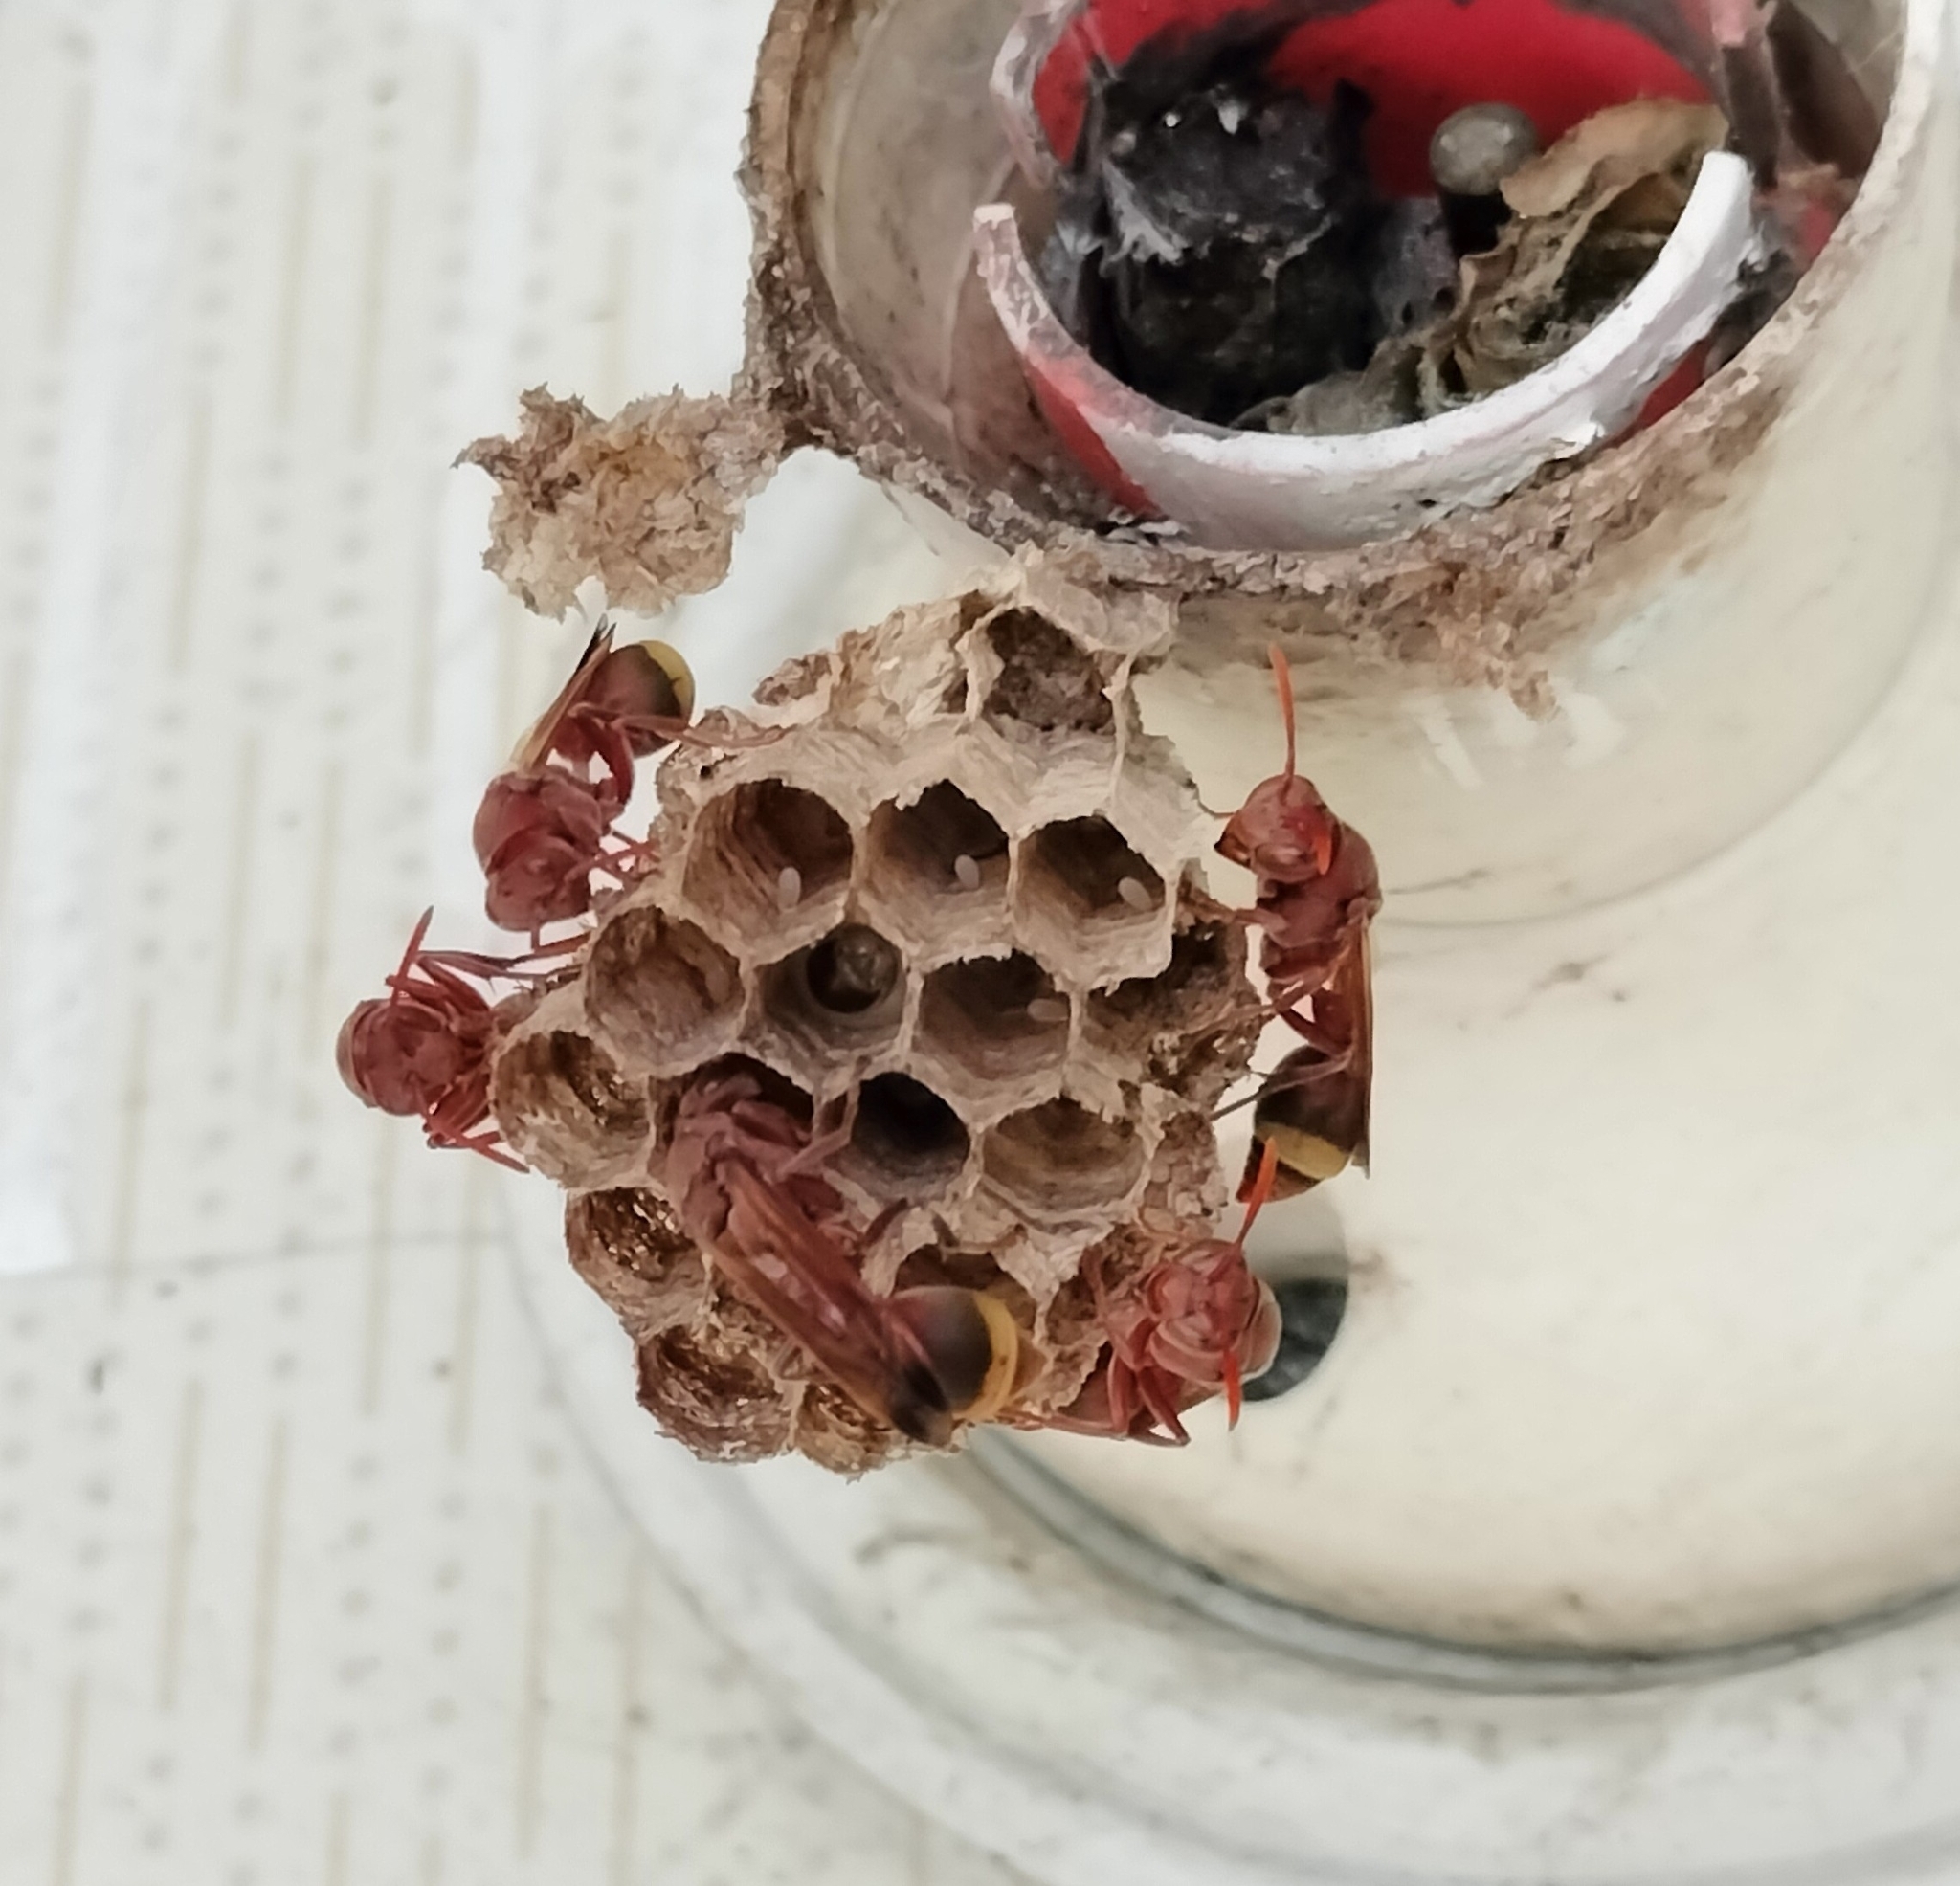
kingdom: Animalia
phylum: Arthropoda
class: Insecta
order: Hymenoptera
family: Vespidae
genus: Ropalidia
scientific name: Ropalidia
